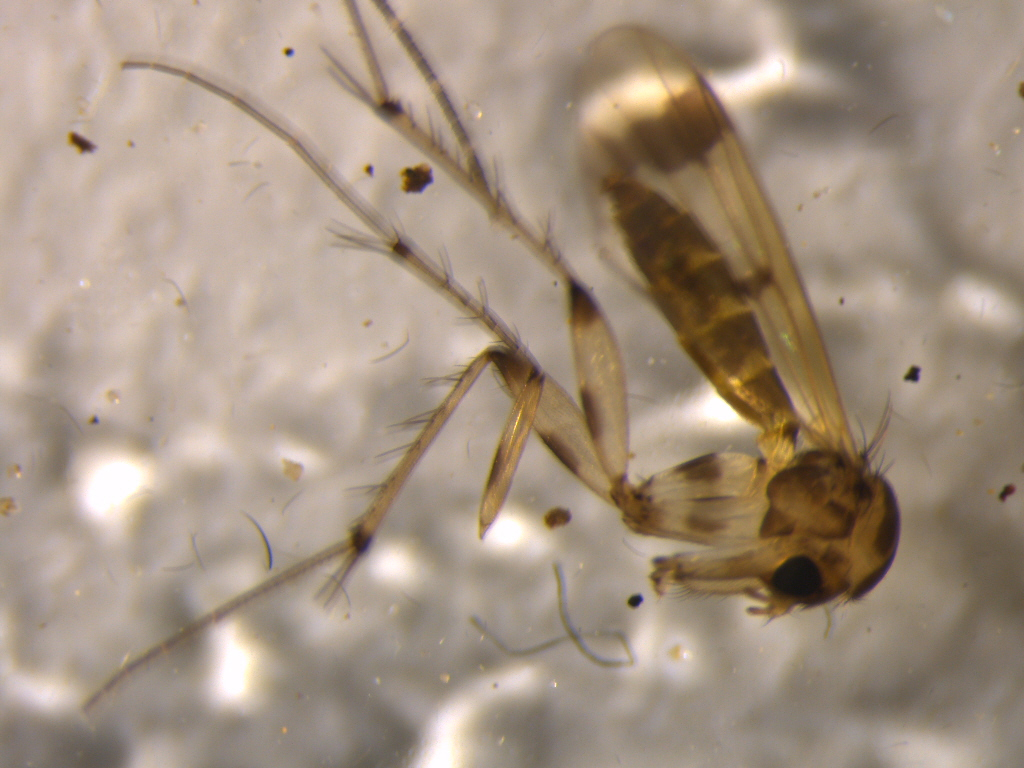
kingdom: Animalia
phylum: Arthropoda
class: Insecta
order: Diptera
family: Mycetophilidae
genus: Mycetophila
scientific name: Mycetophila latifascia
